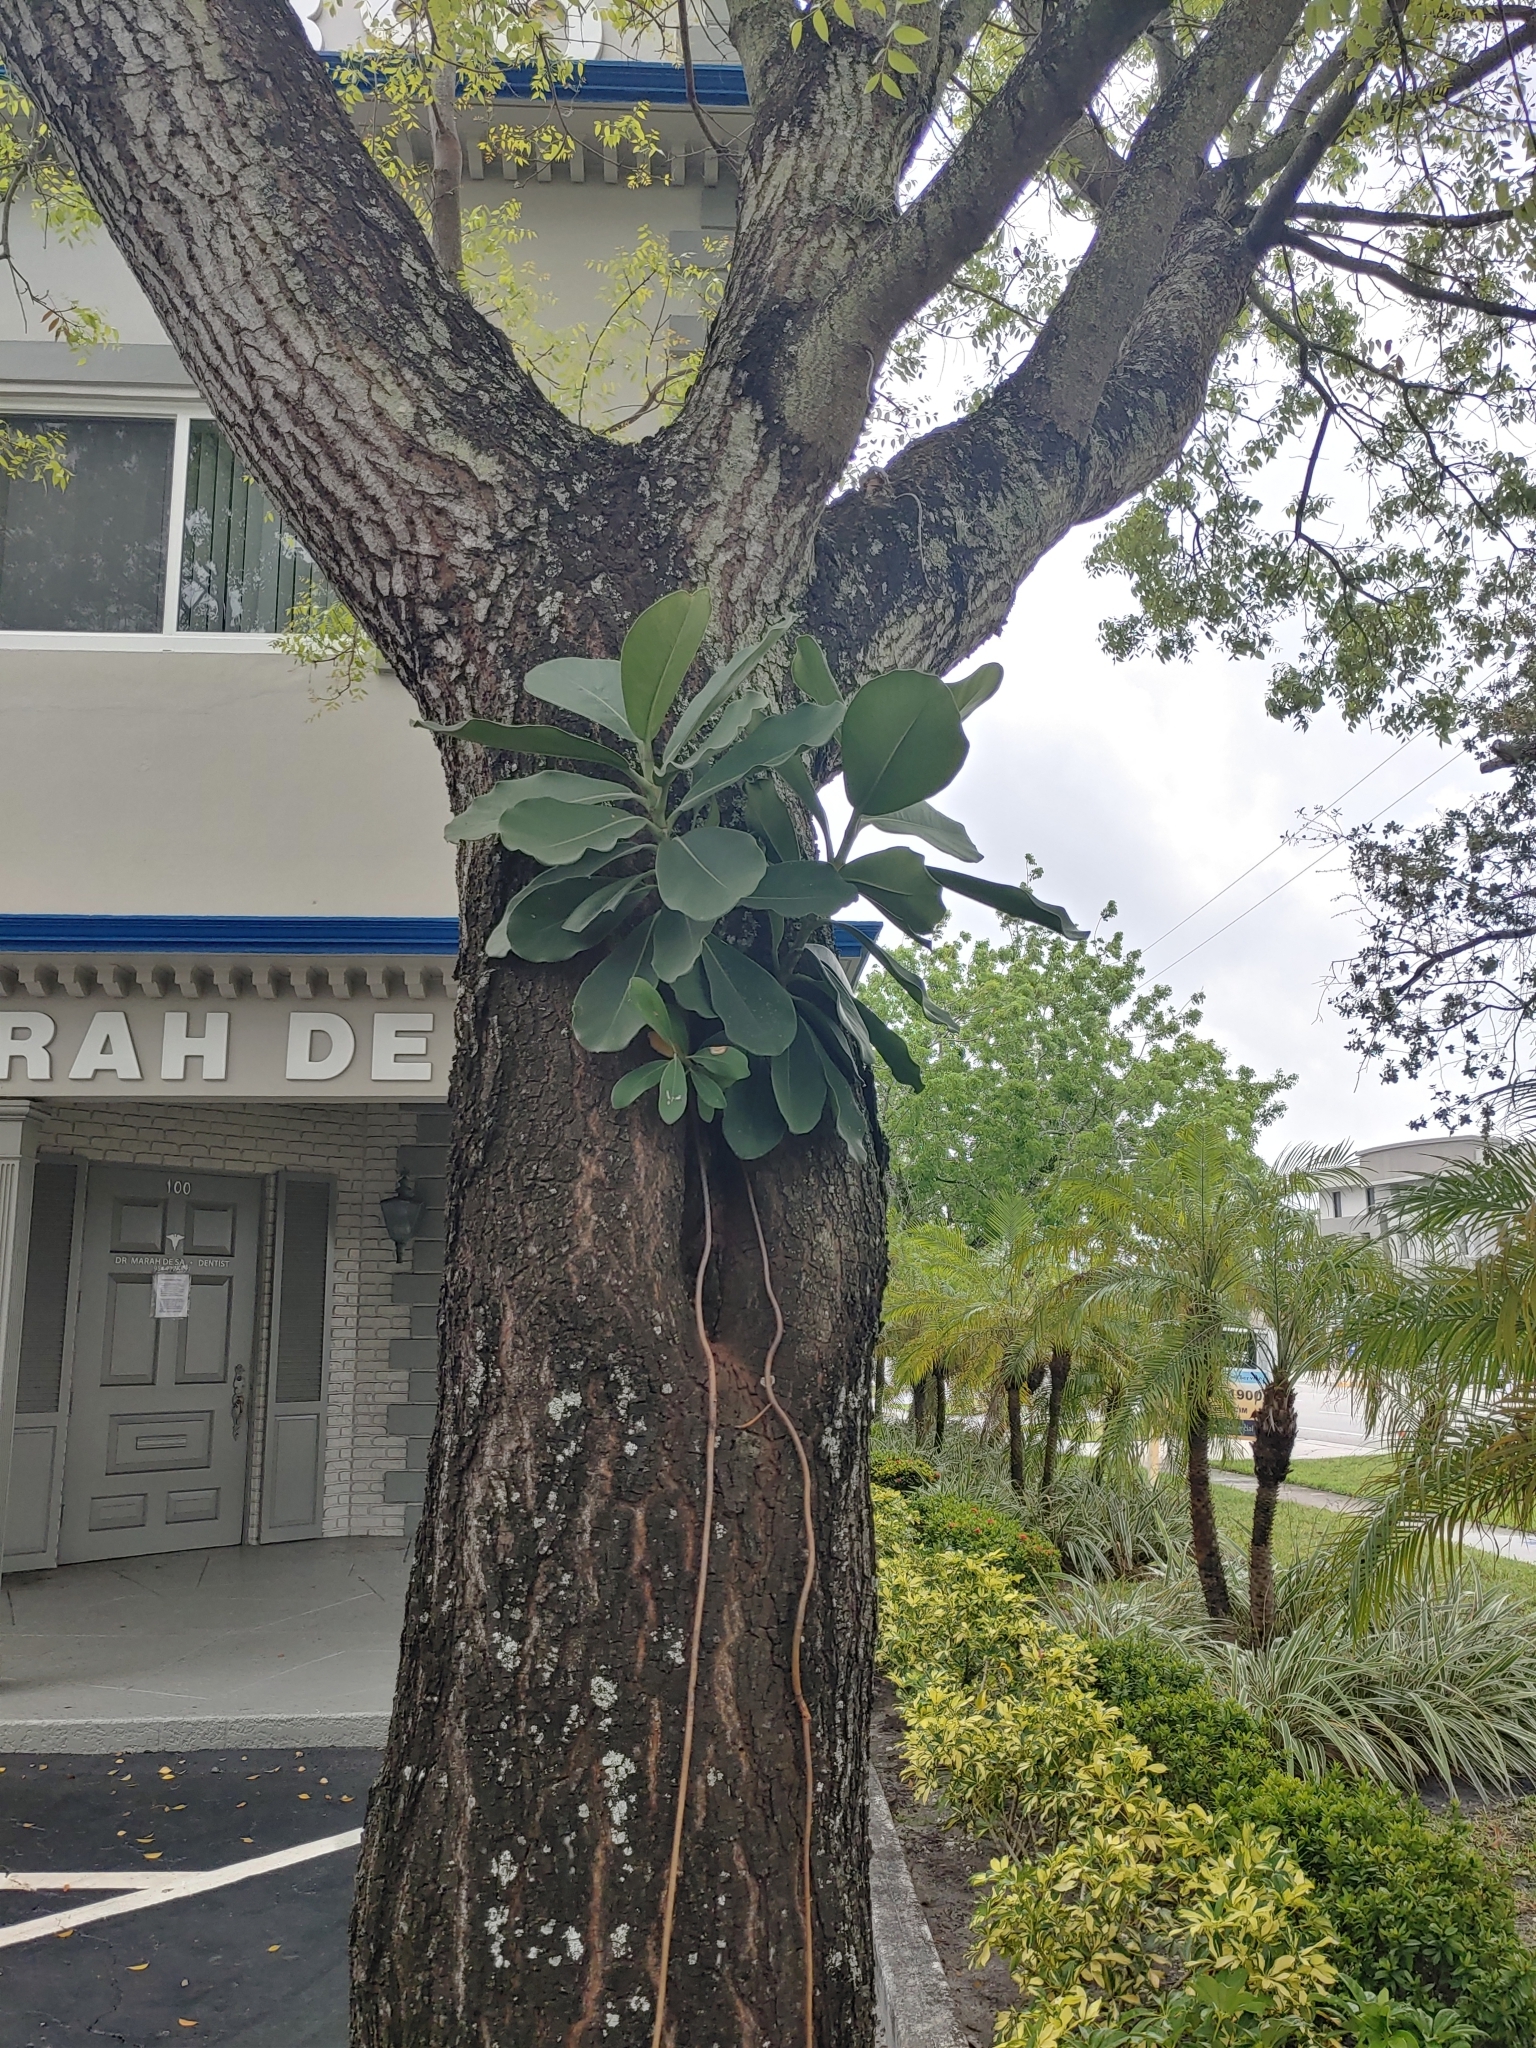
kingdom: Plantae
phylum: Tracheophyta
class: Magnoliopsida
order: Malpighiales
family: Clusiaceae
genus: Clusia
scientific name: Clusia rosea
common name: Scotch attorney
